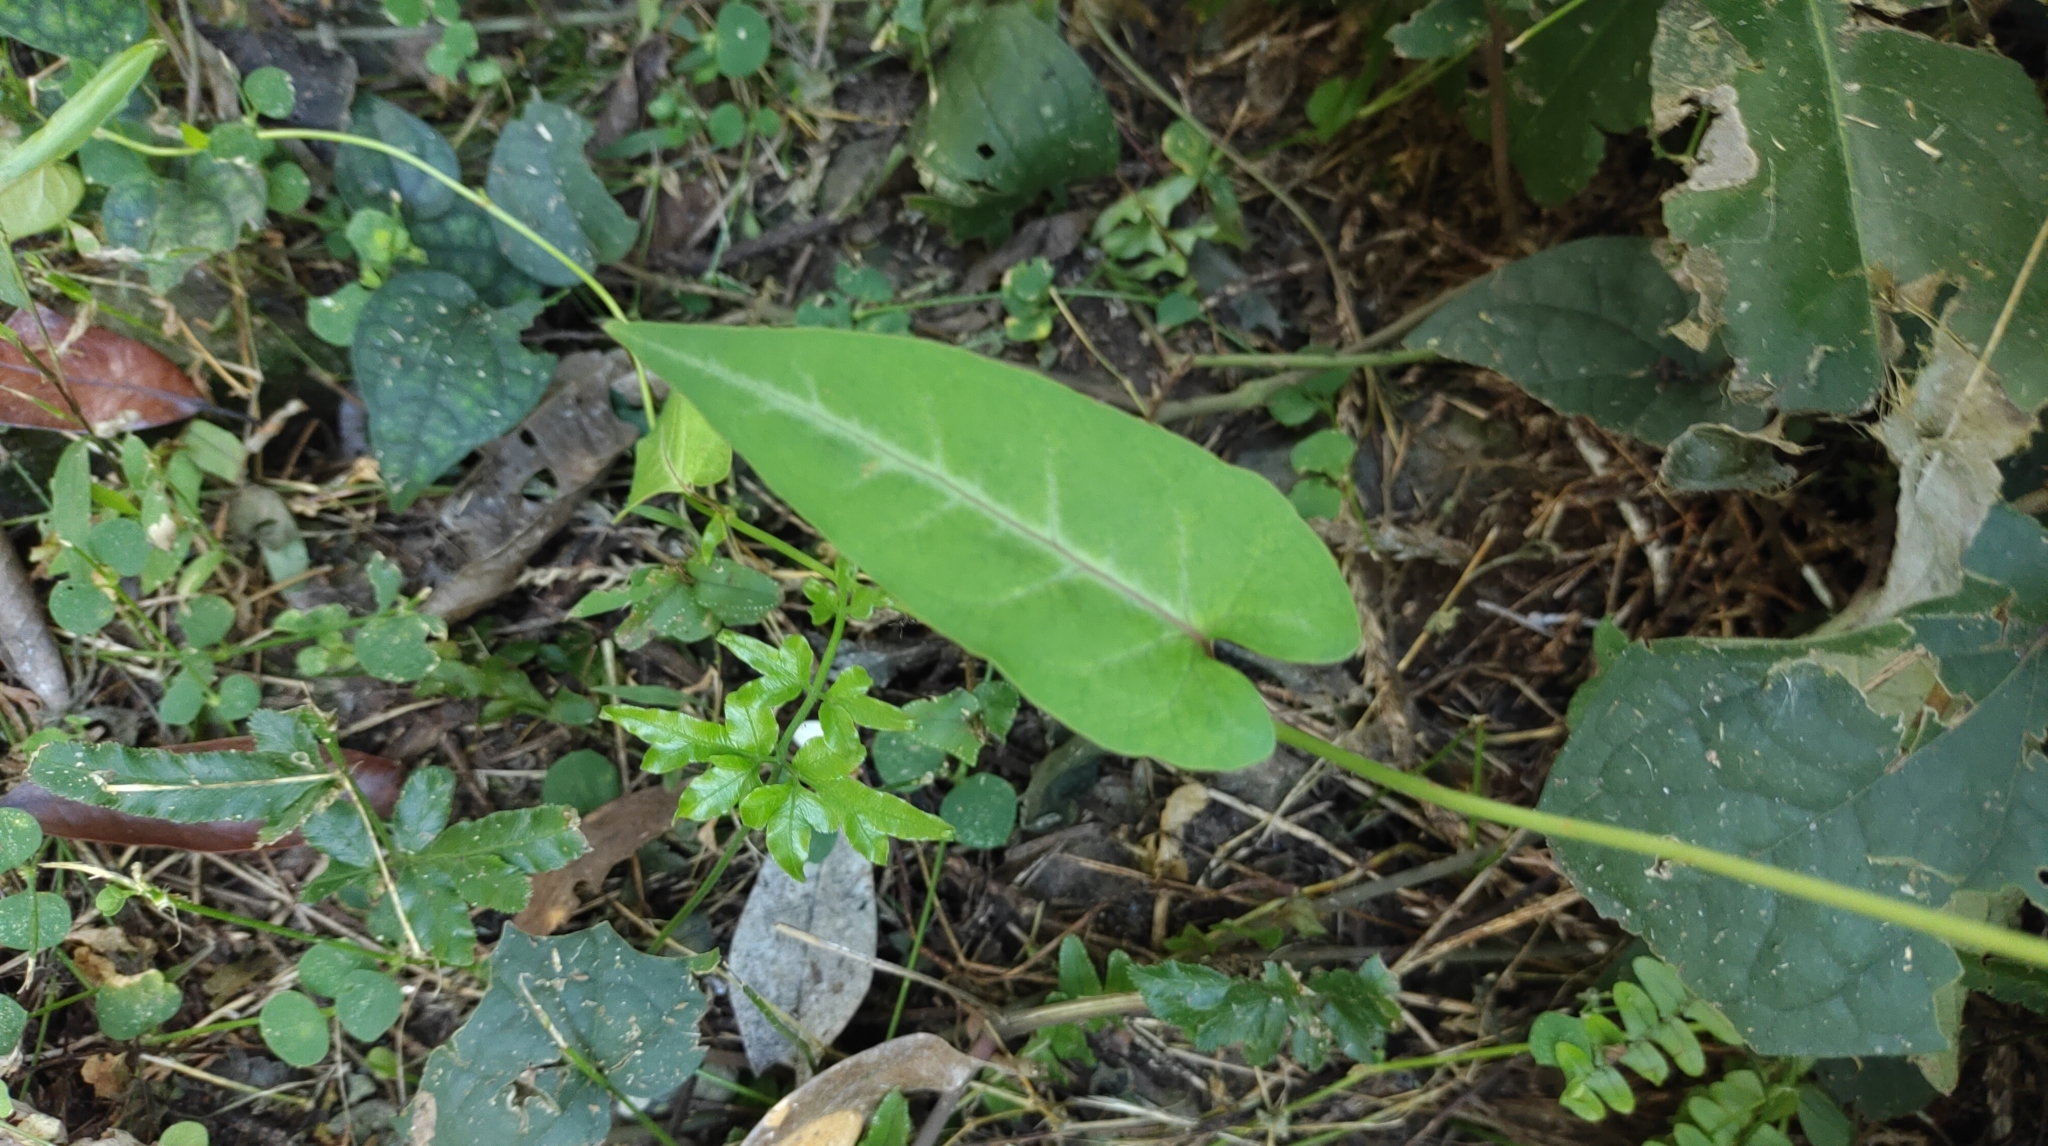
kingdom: Plantae
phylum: Tracheophyta
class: Magnoliopsida
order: Caryophyllales
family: Polygonaceae
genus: Reynoutria
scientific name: Reynoutria multiflora
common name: Chinese fleeceflower
